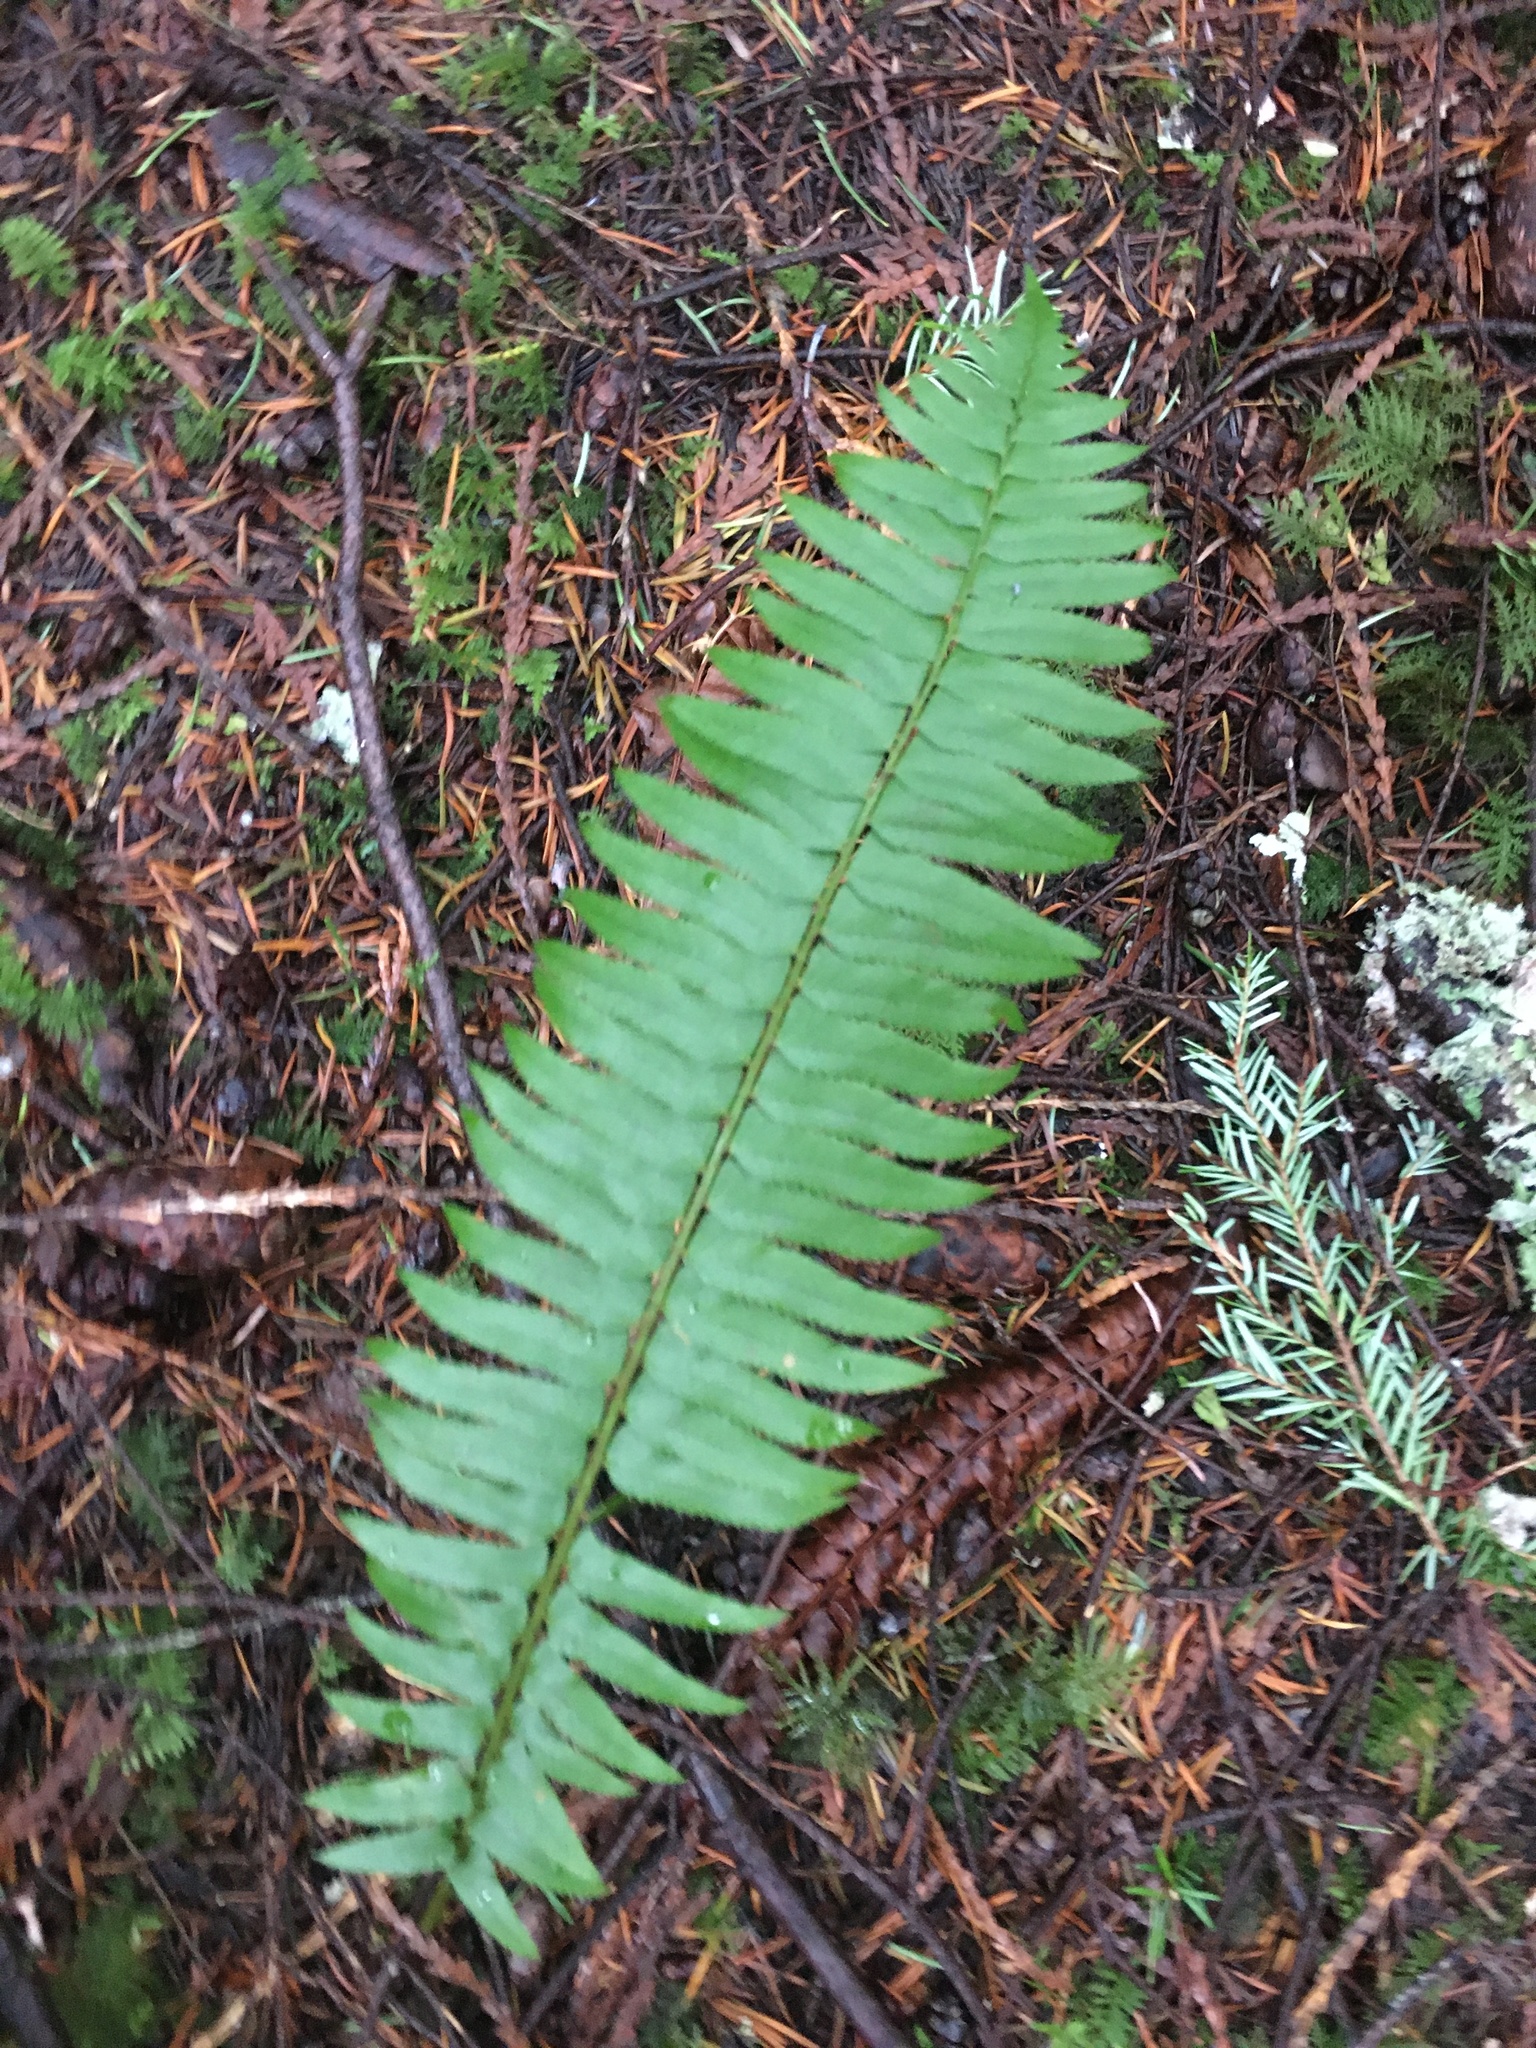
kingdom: Plantae
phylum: Tracheophyta
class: Polypodiopsida
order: Polypodiales
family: Dryopteridaceae
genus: Polystichum
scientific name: Polystichum munitum
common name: Western sword-fern
